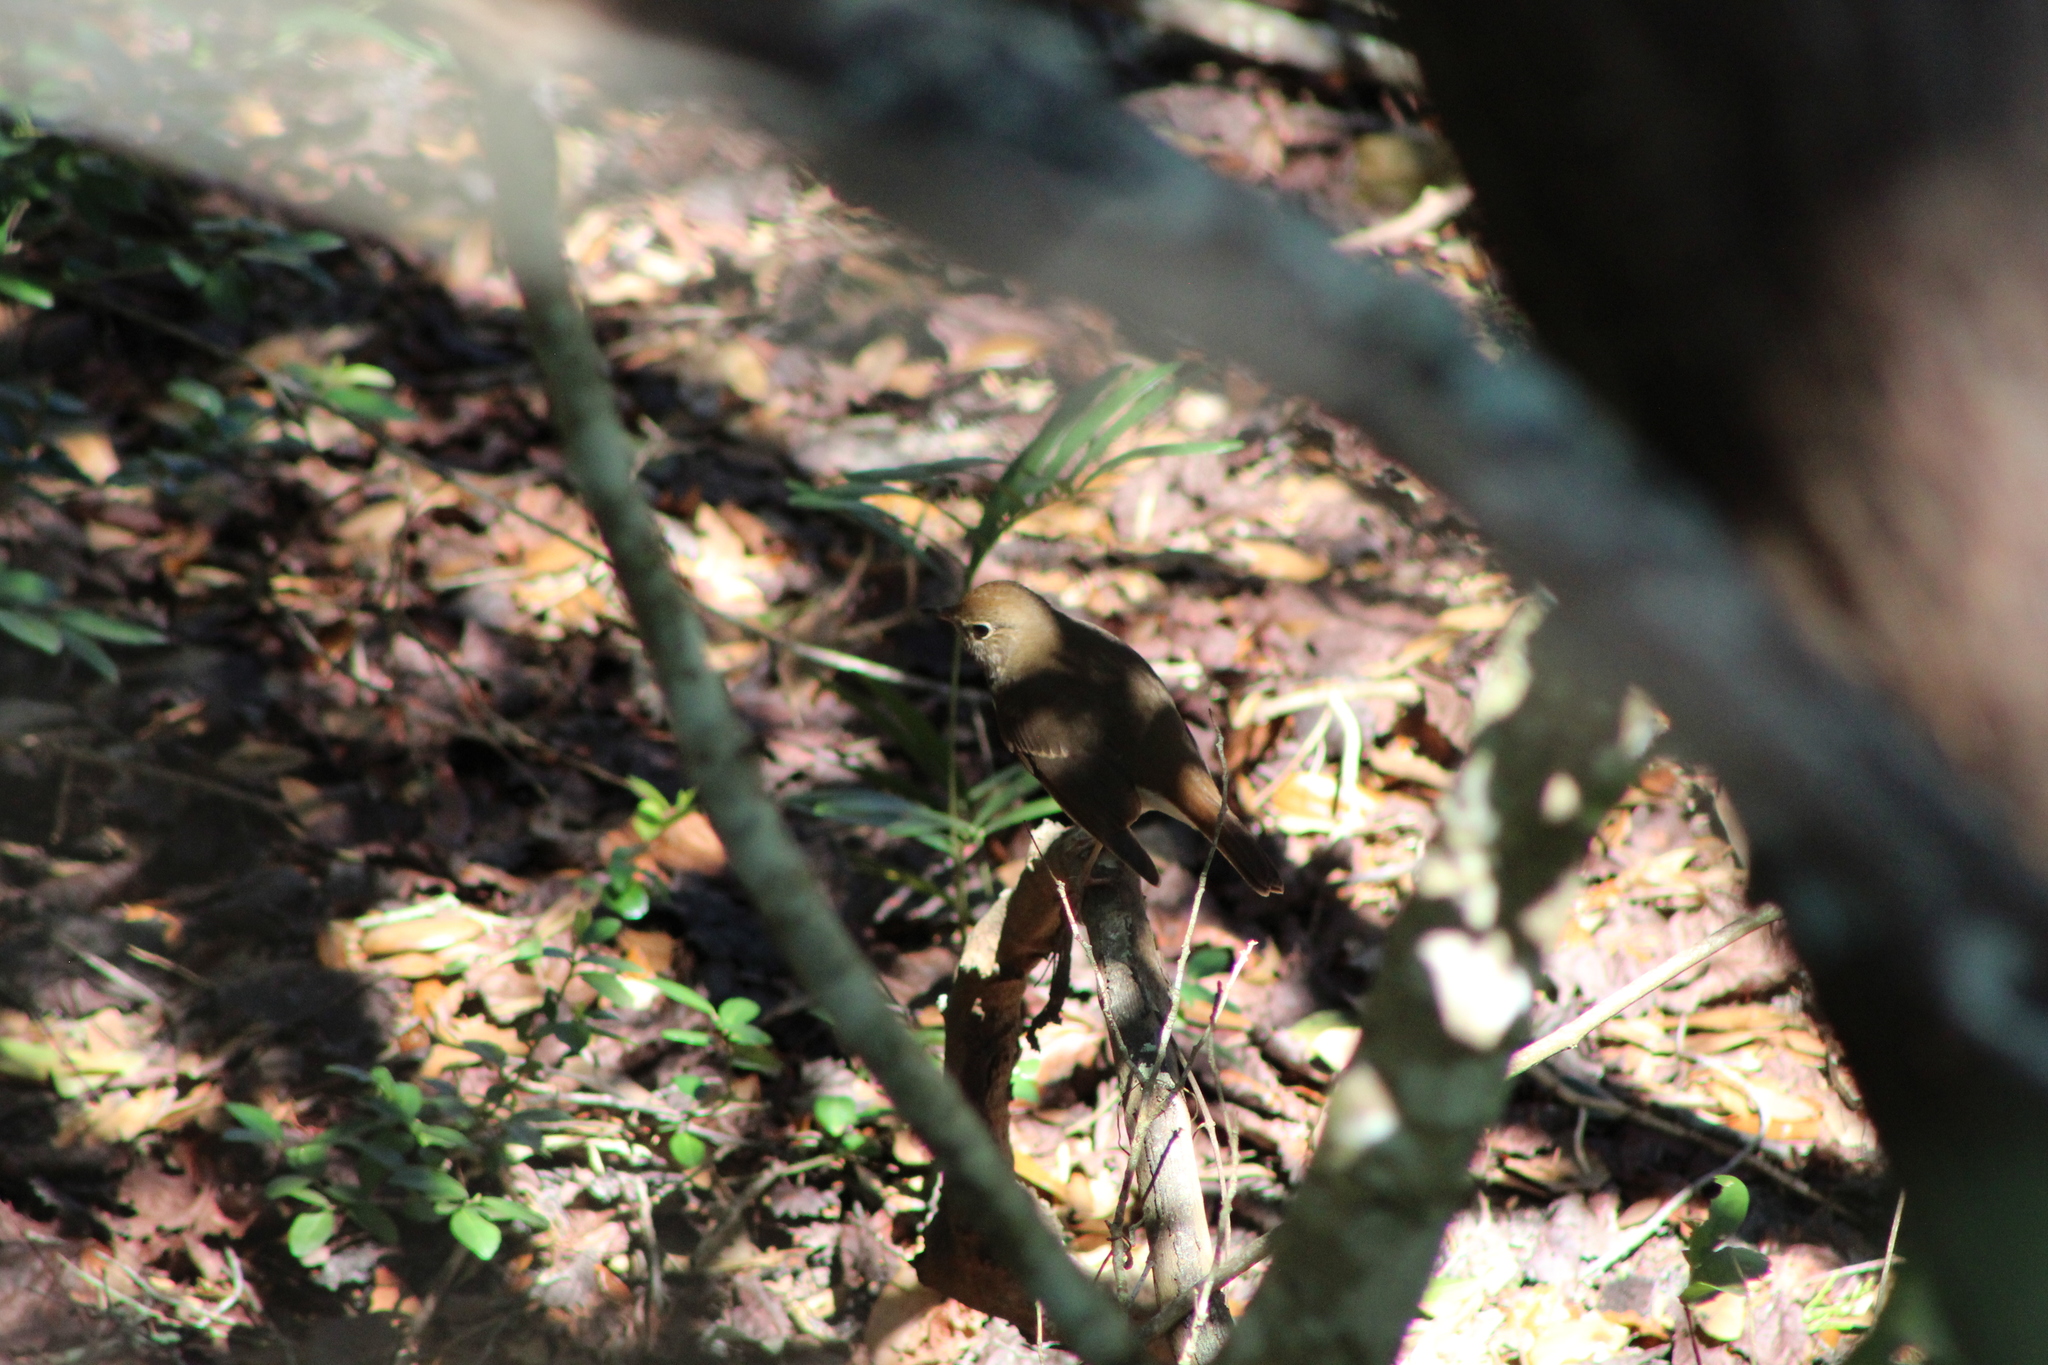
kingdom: Animalia
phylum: Chordata
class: Aves
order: Passeriformes
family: Turdidae
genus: Catharus
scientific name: Catharus guttatus
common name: Hermit thrush
